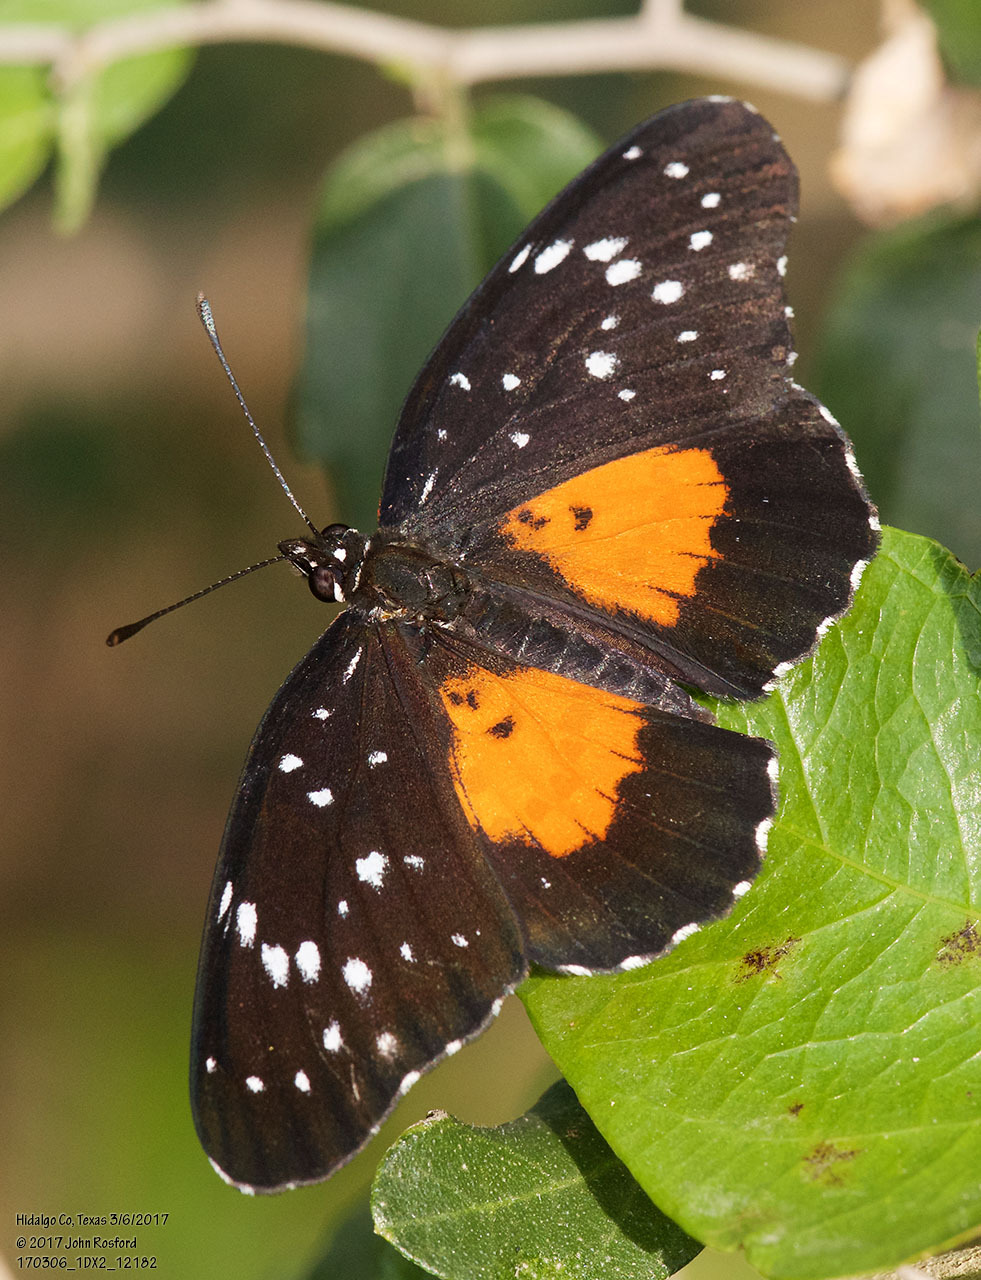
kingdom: Animalia
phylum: Arthropoda
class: Insecta
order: Lepidoptera
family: Nymphalidae
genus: Chlosyne
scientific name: Chlosyne janais
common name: Crimson patch
